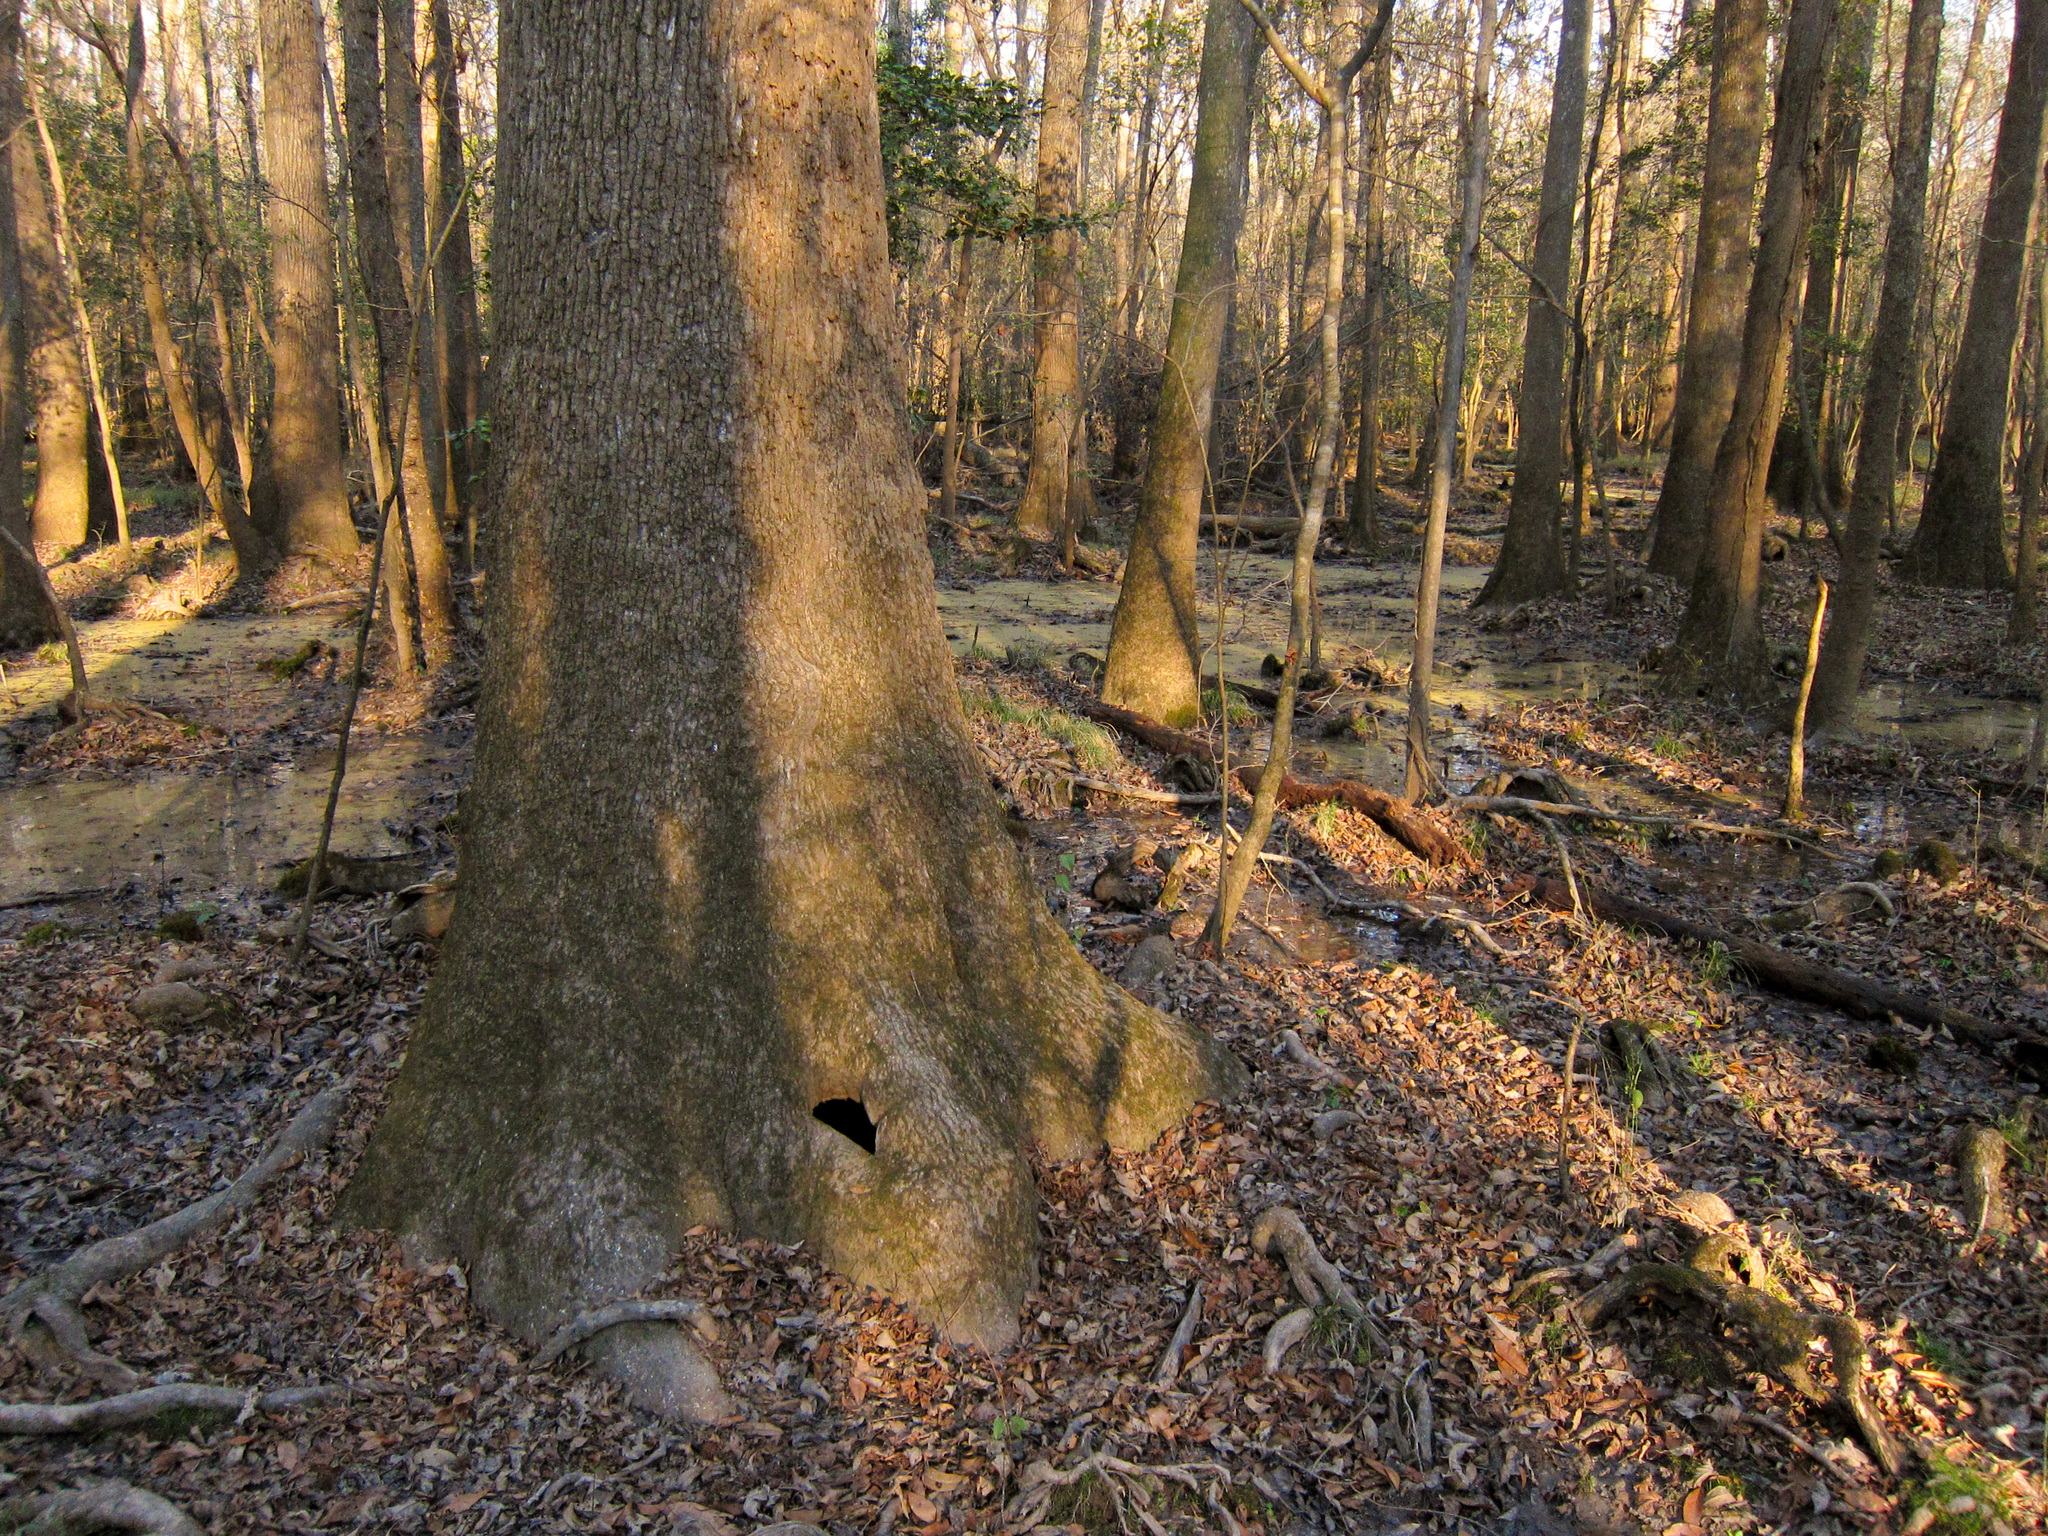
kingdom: Plantae
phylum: Tracheophyta
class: Magnoliopsida
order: Cornales
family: Nyssaceae
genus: Nyssa
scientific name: Nyssa aquatica
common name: Swamp tupelo
